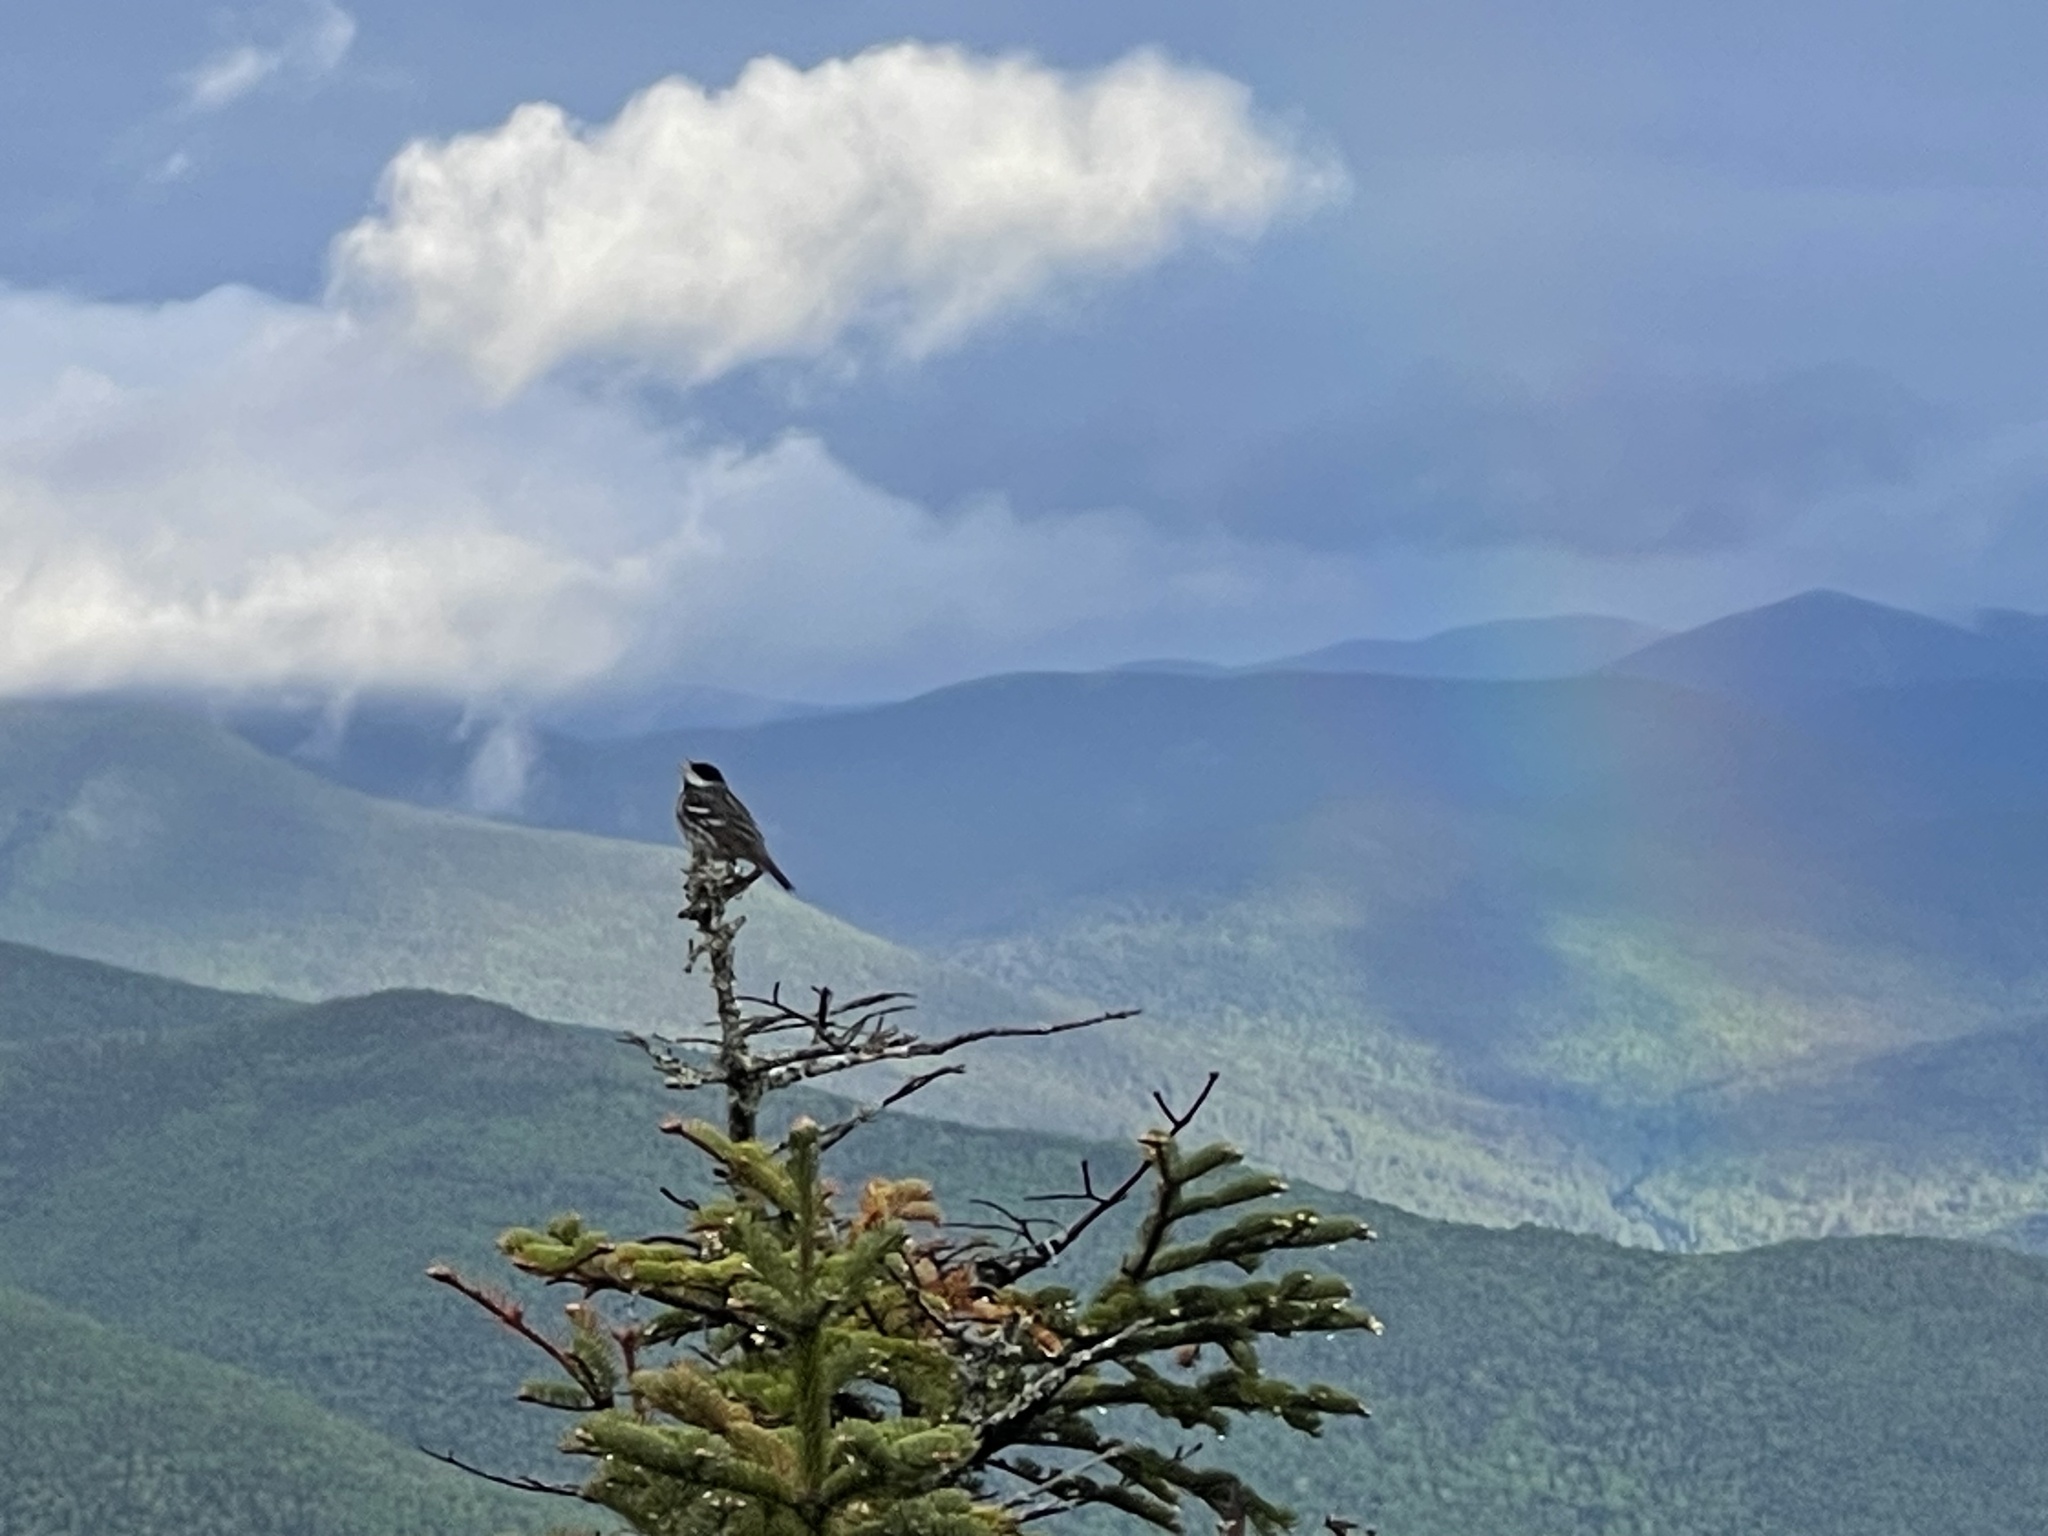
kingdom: Animalia
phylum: Chordata
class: Aves
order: Passeriformes
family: Parulidae
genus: Setophaga
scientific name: Setophaga striata
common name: Blackpoll warbler
